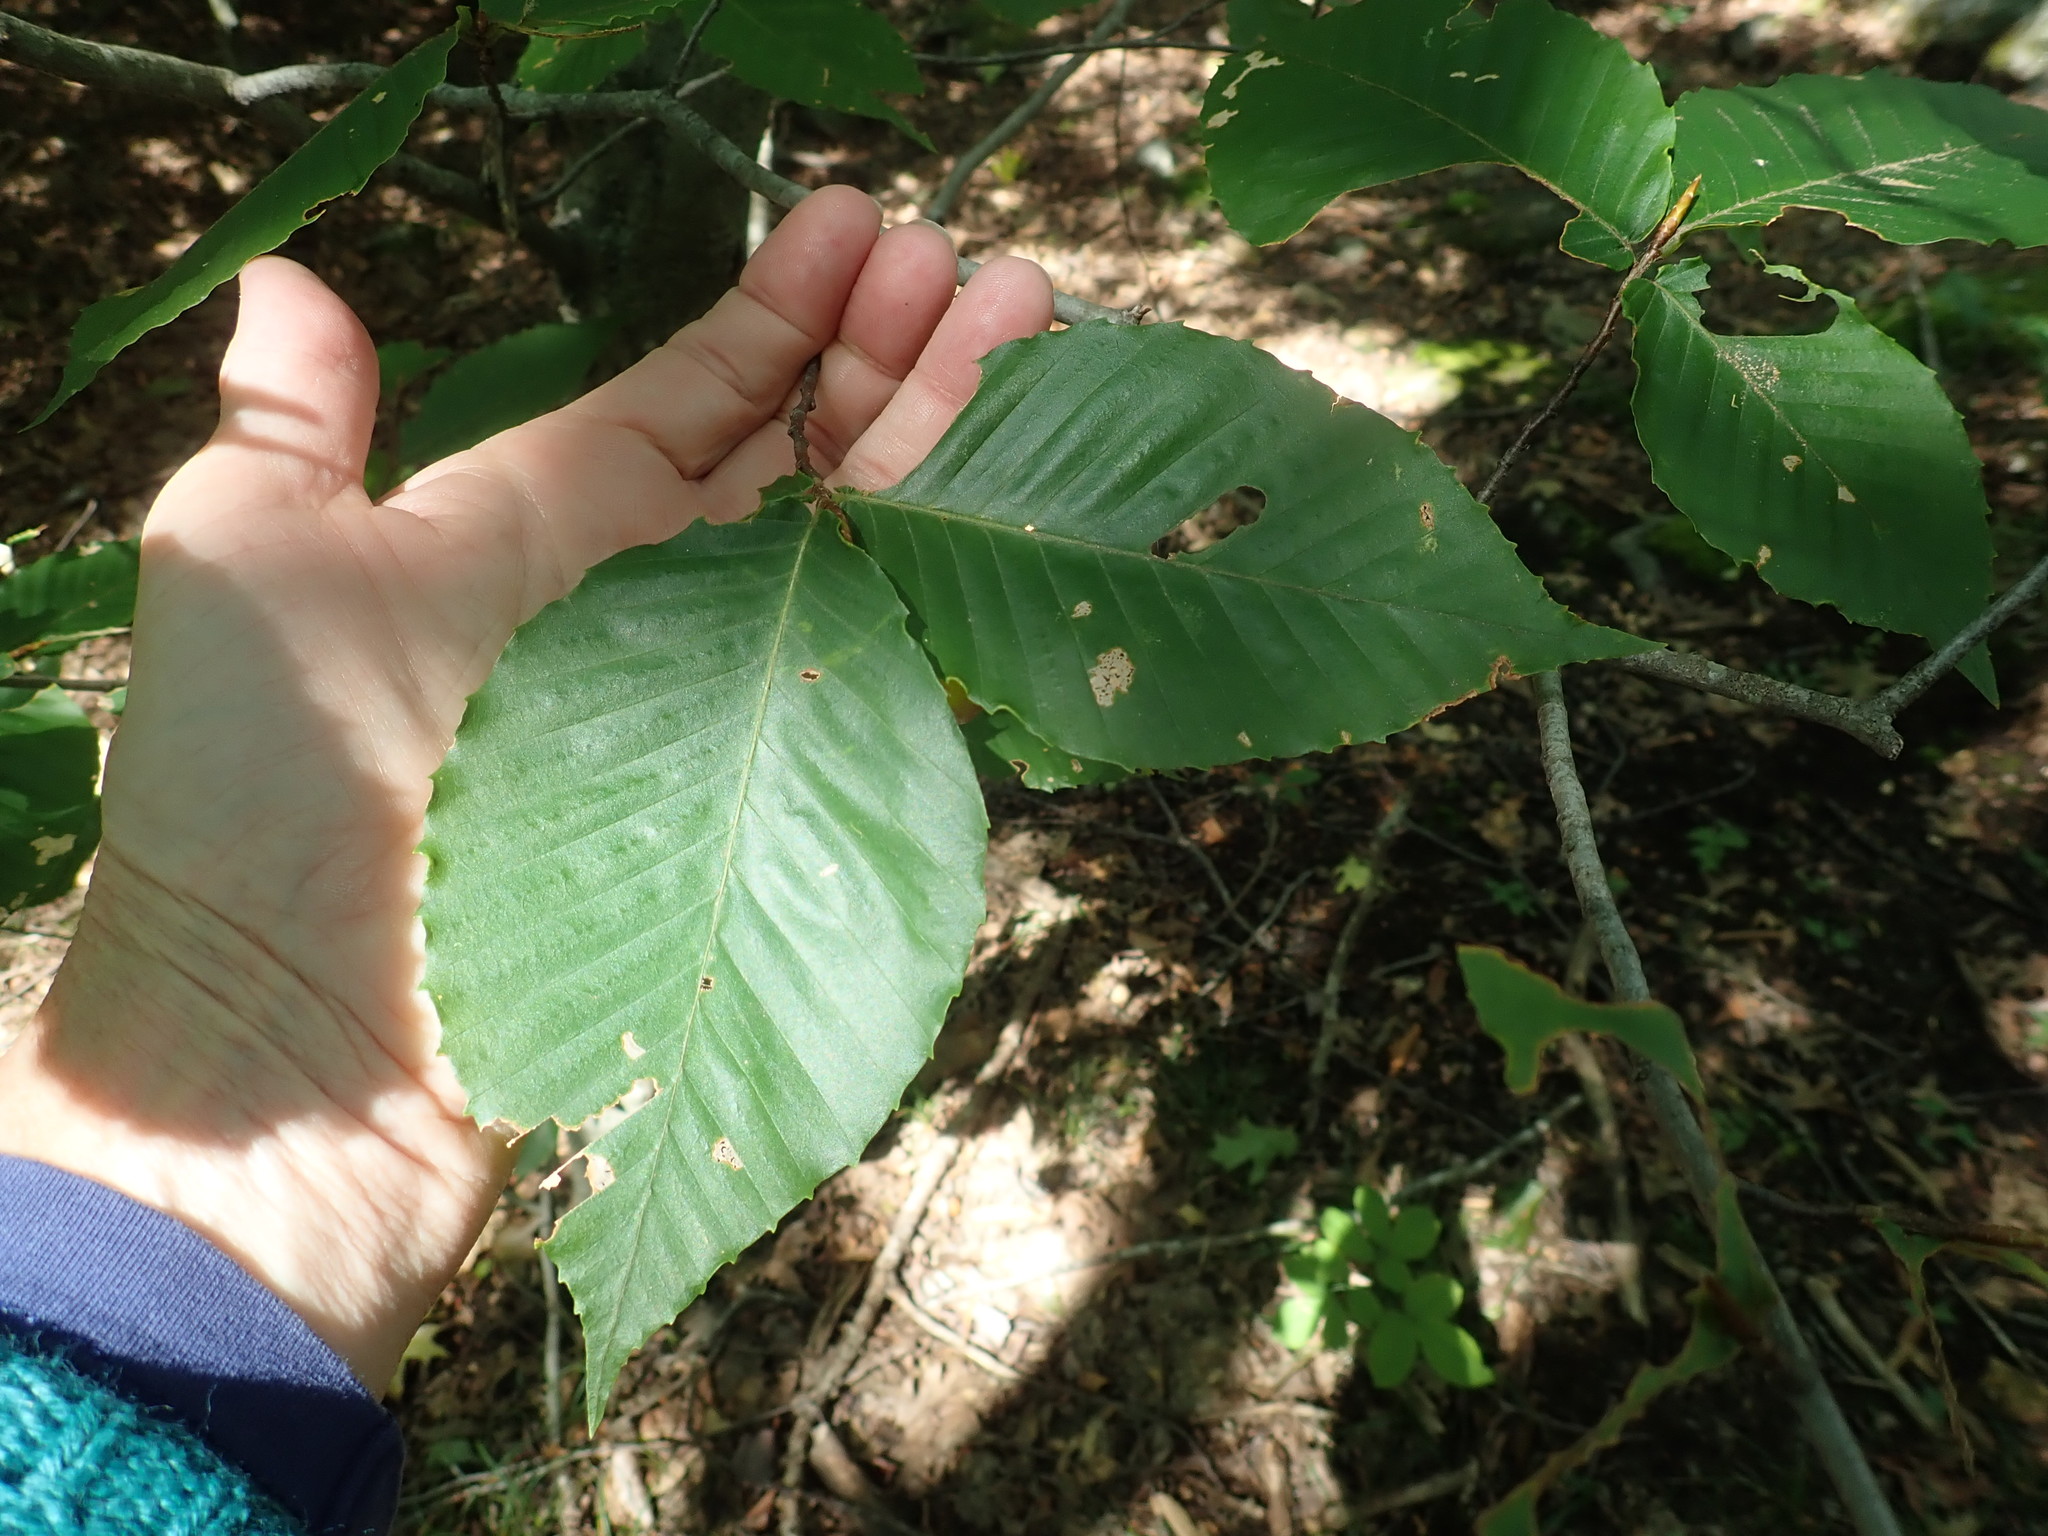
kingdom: Plantae
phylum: Tracheophyta
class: Magnoliopsida
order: Fagales
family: Fagaceae
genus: Fagus
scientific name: Fagus grandifolia
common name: American beech
